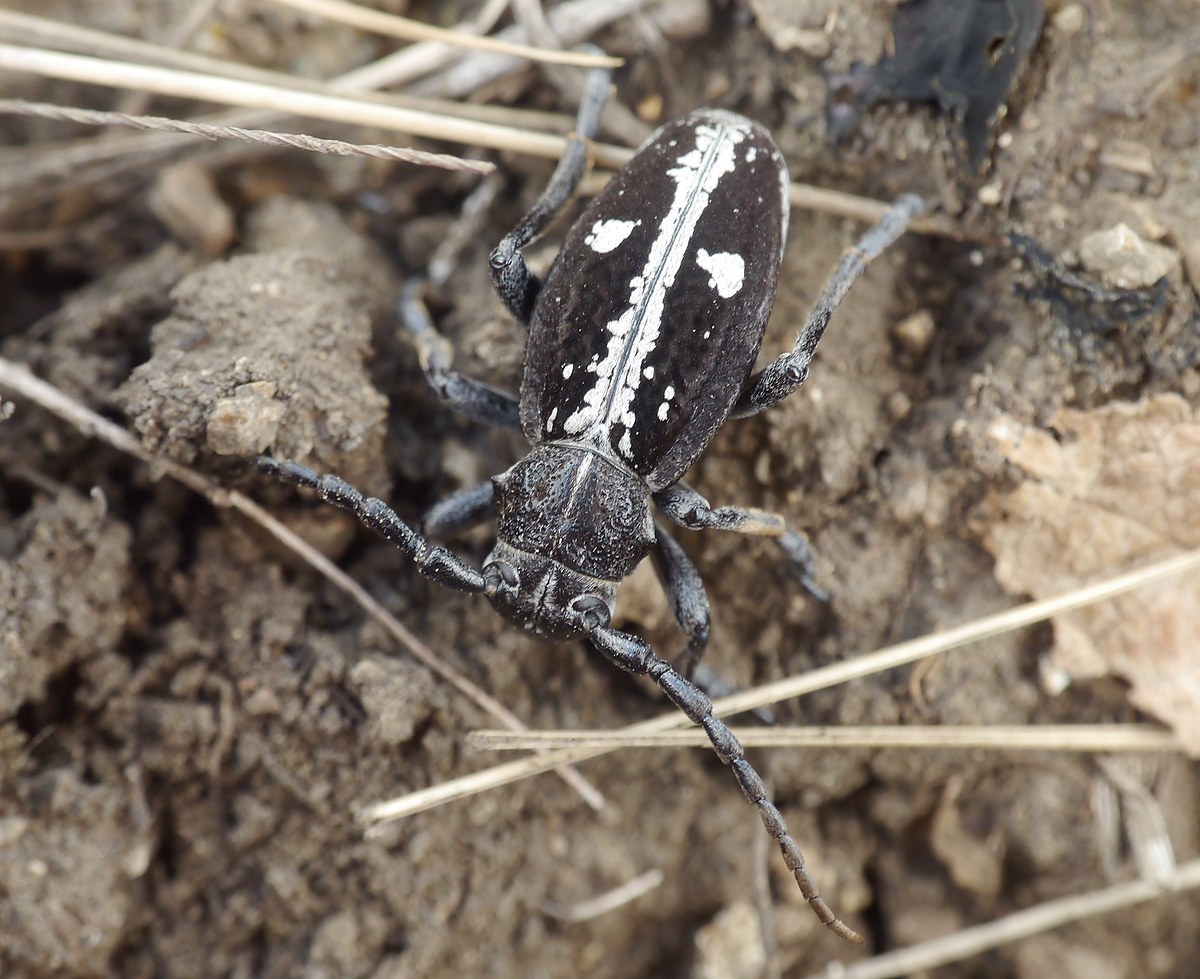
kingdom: Animalia
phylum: Arthropoda
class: Insecta
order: Coleoptera
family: Cerambycidae
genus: Dorcadion
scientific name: Dorcadion equestre
